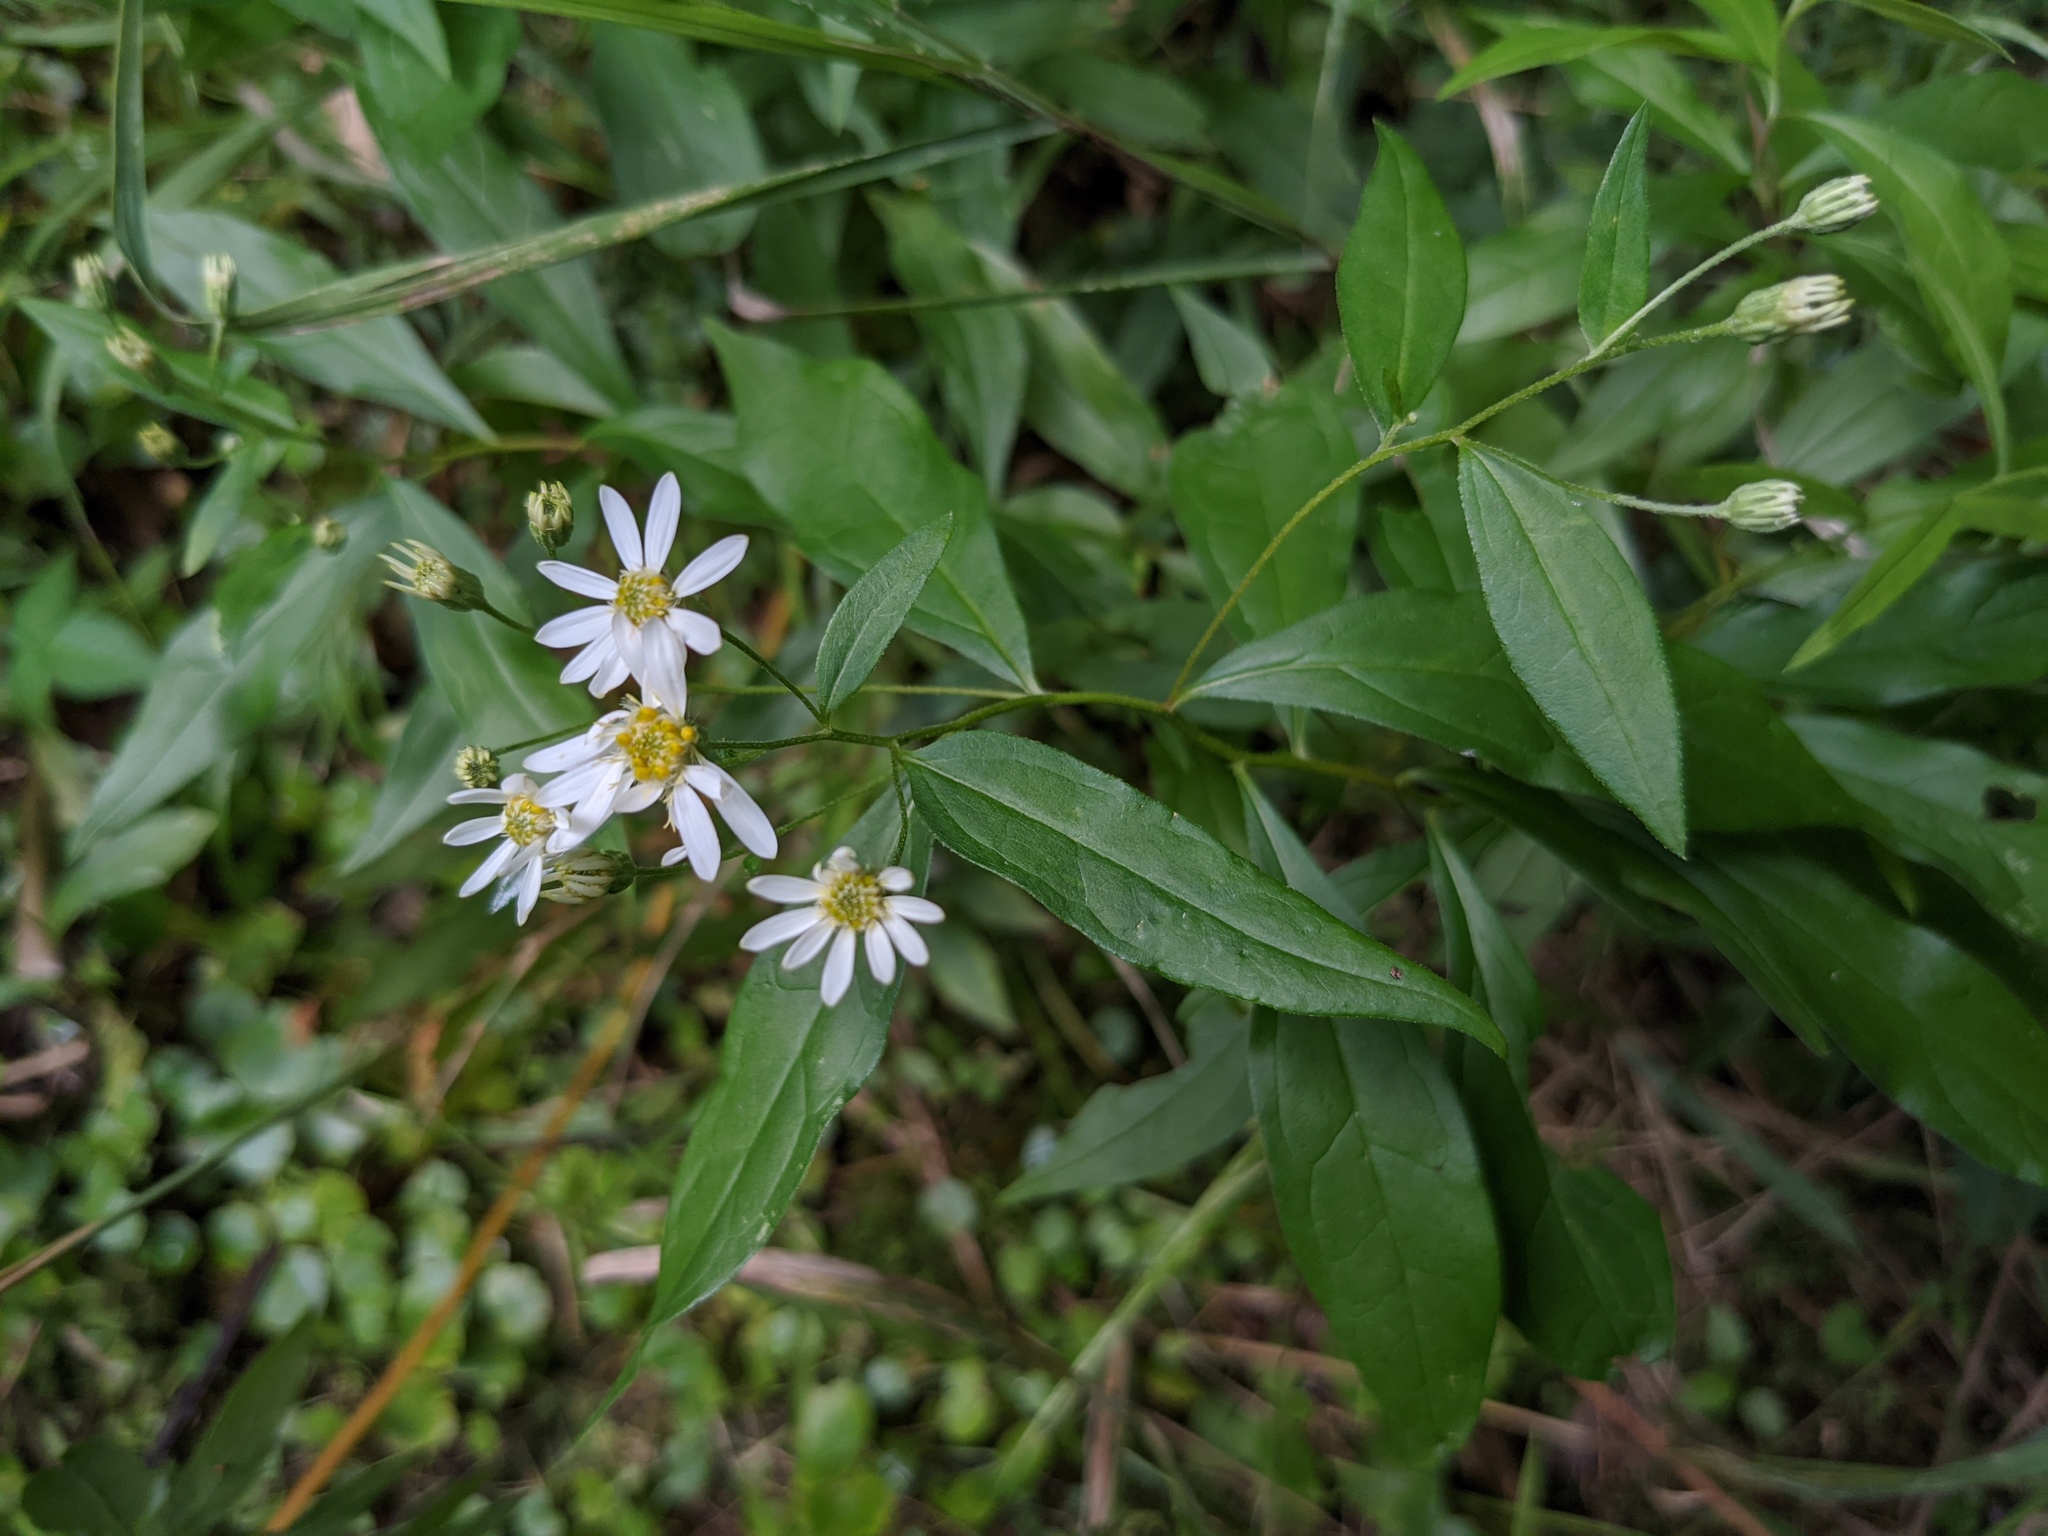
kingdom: Plantae
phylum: Tracheophyta
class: Magnoliopsida
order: Asterales
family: Asteraceae
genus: Doellingeria
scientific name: Doellingeria umbellata
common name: Flat-top white aster
